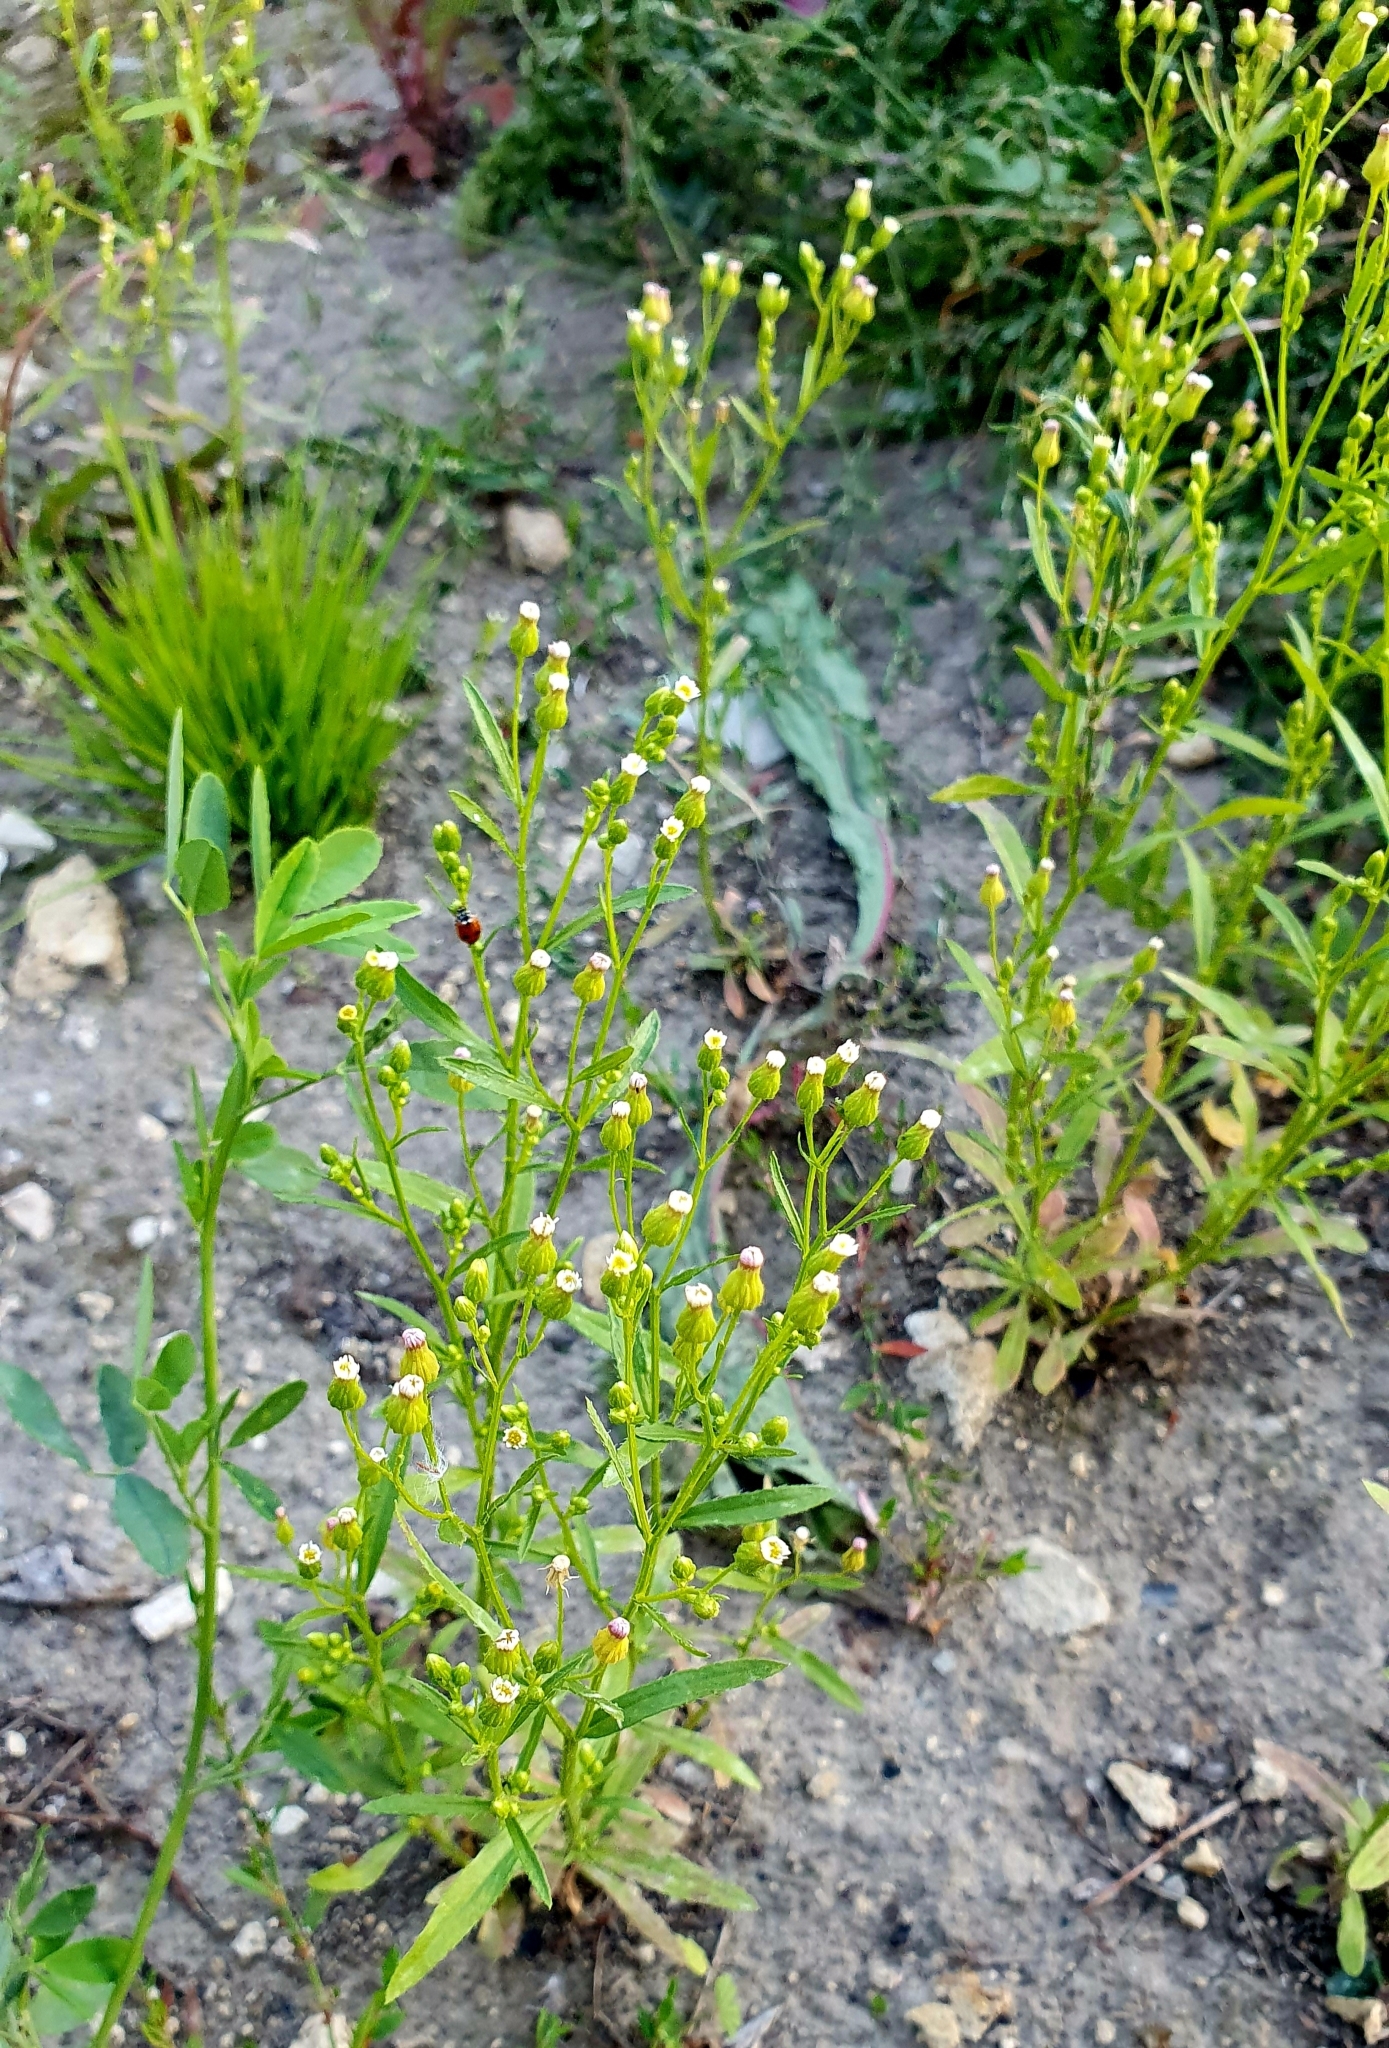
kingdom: Plantae
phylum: Tracheophyta
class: Magnoliopsida
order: Asterales
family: Asteraceae
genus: Erigeron
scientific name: Erigeron canadensis
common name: Canadian fleabane
